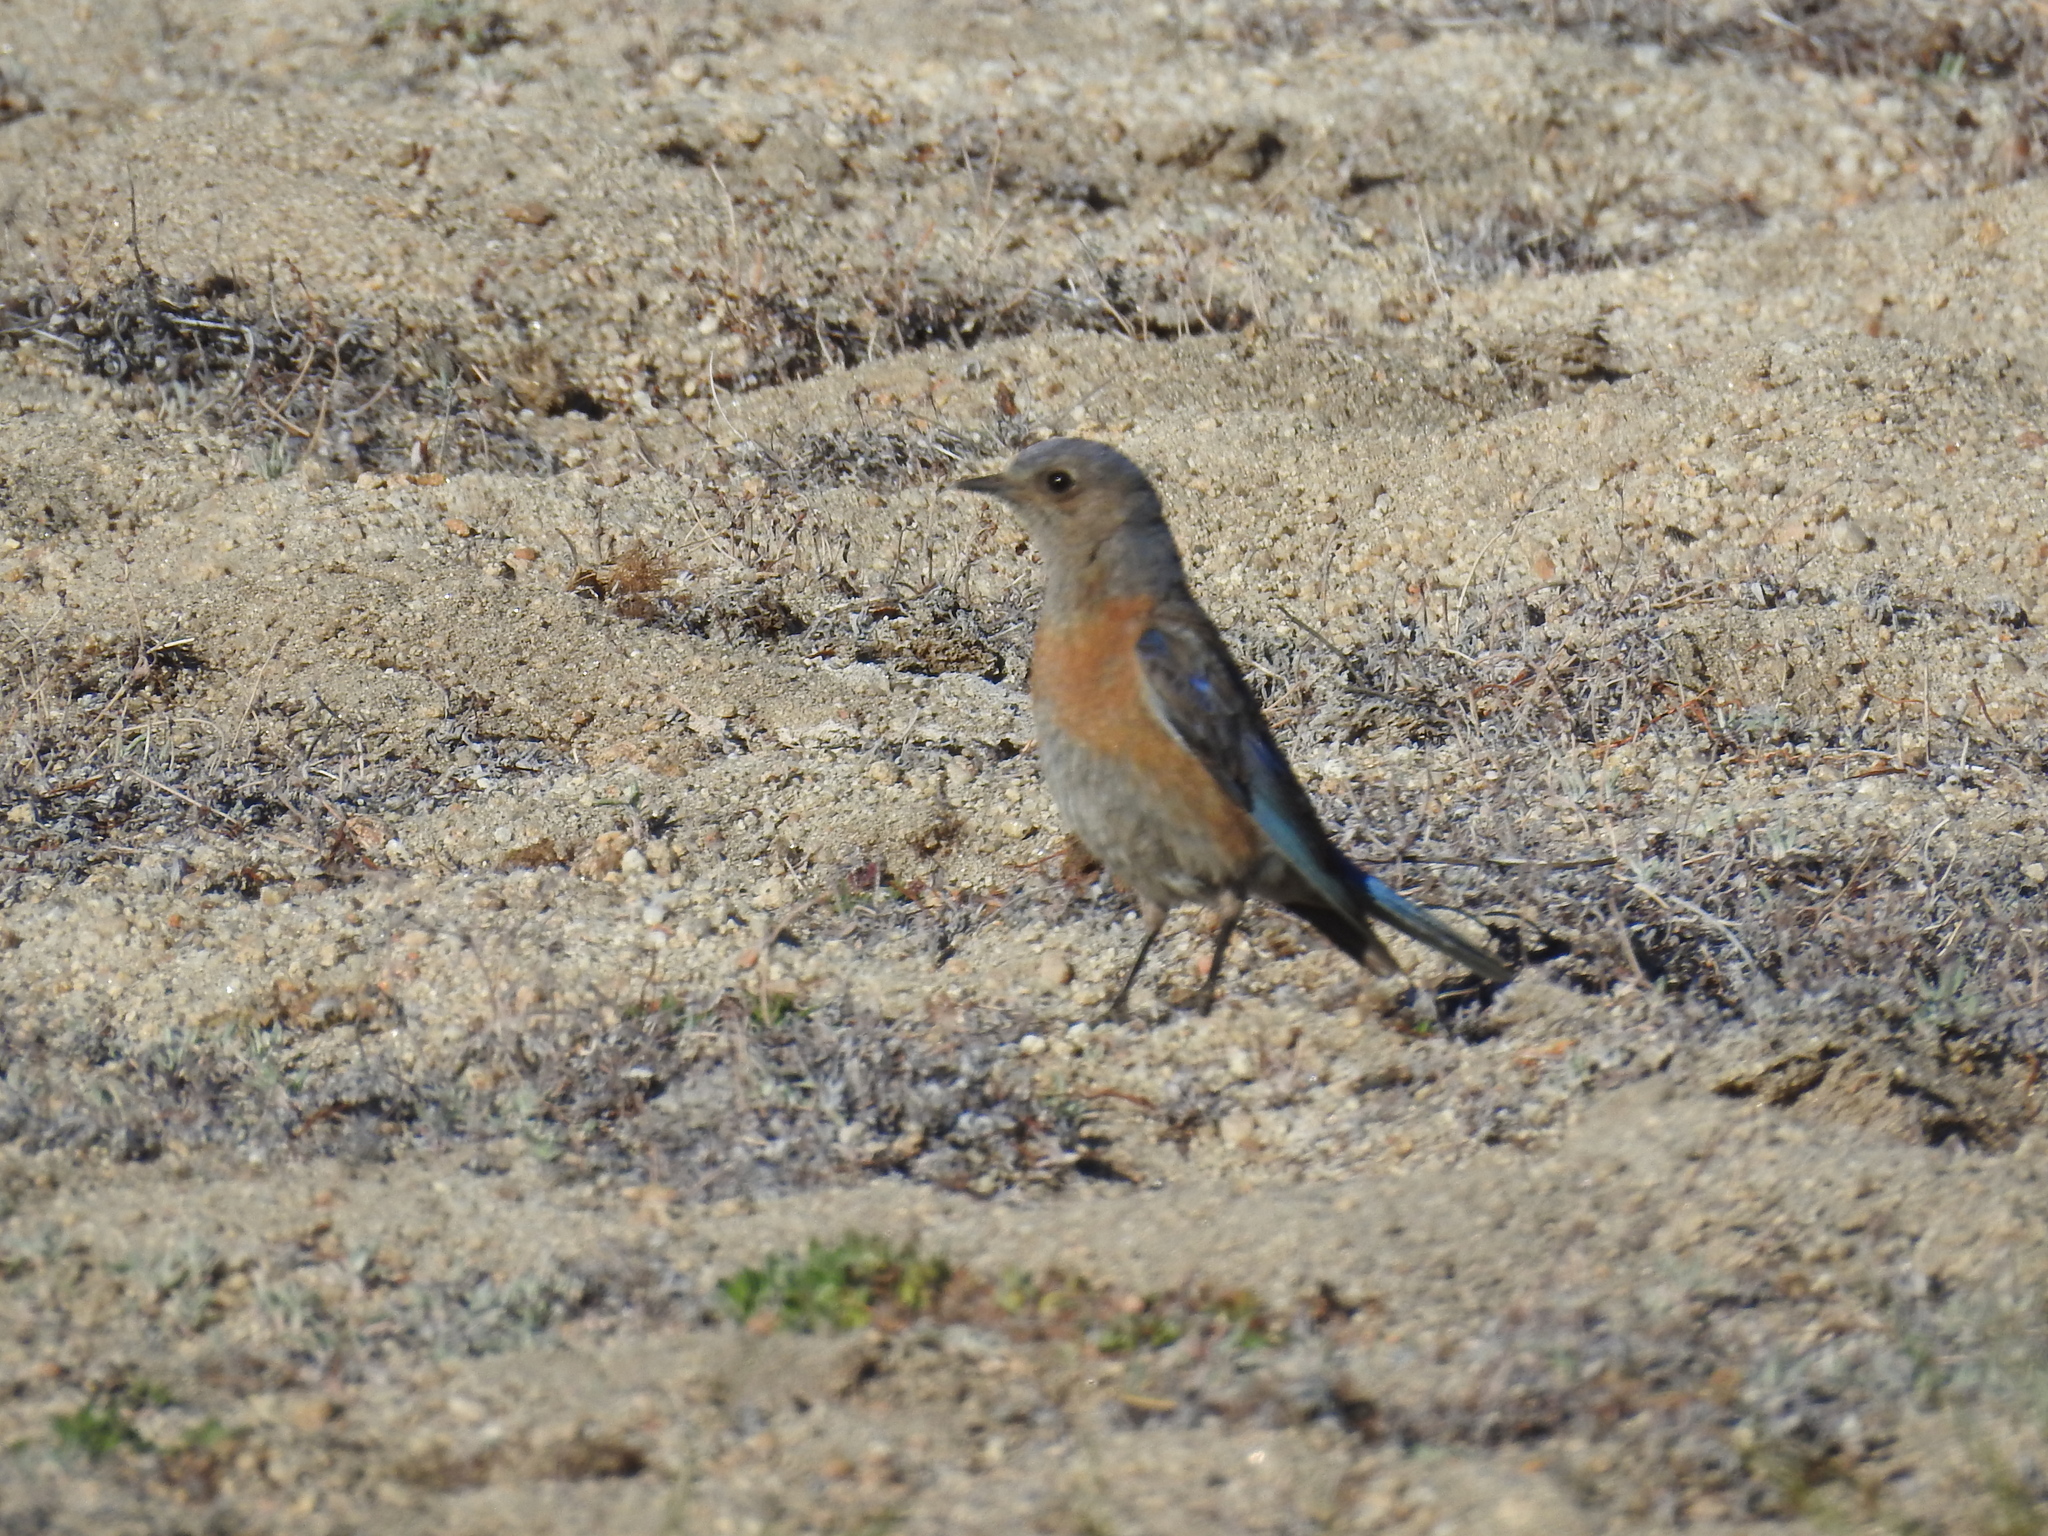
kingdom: Animalia
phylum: Chordata
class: Aves
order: Passeriformes
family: Turdidae
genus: Sialia
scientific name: Sialia mexicana
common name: Western bluebird
